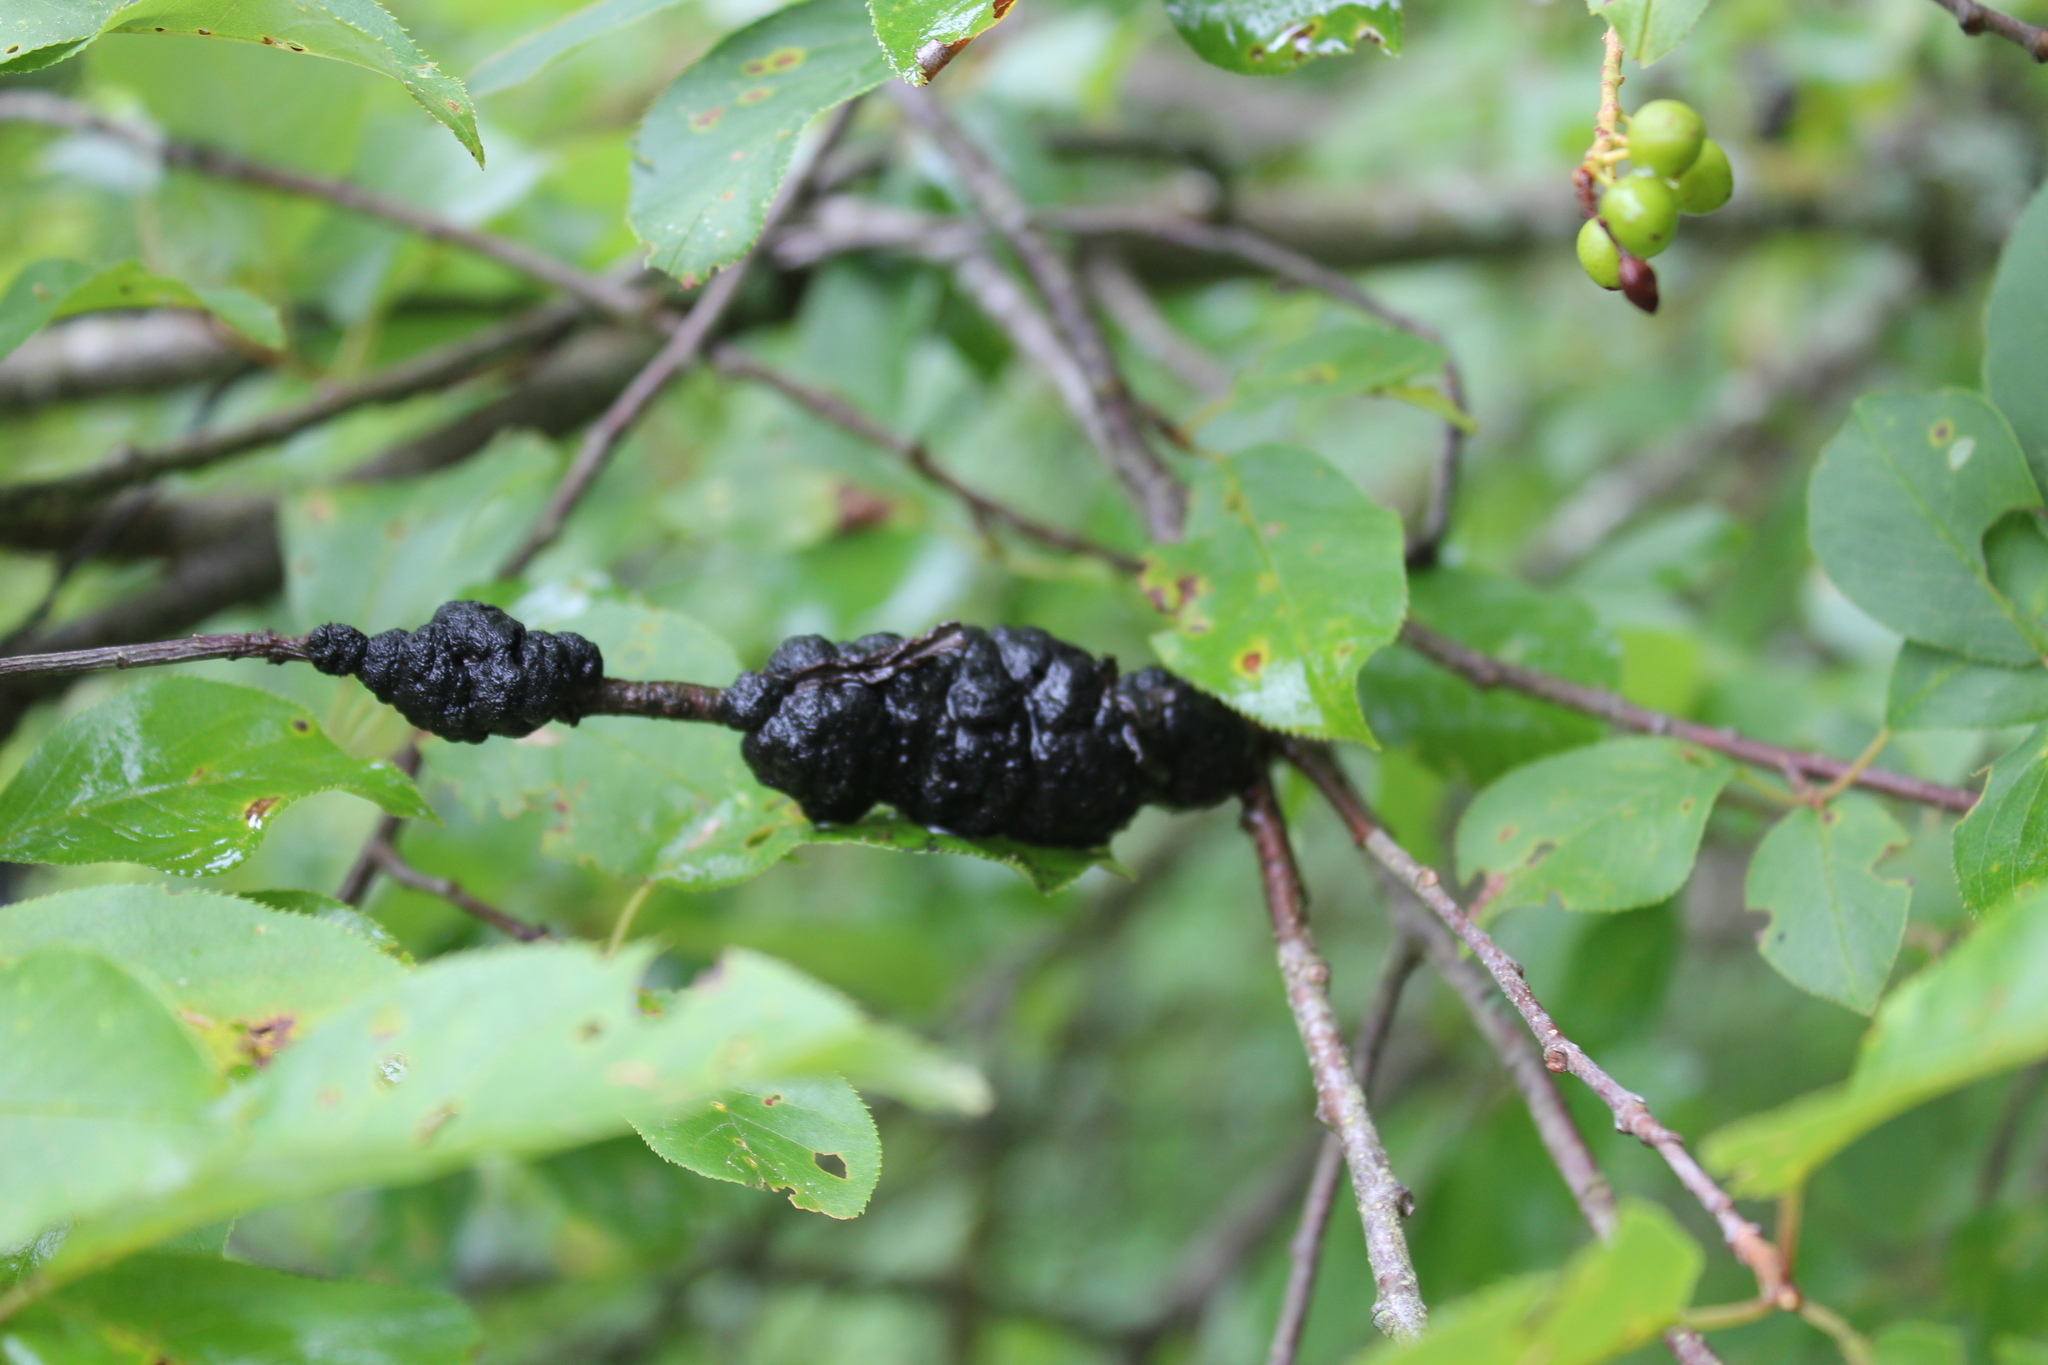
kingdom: Fungi
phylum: Ascomycota
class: Dothideomycetes
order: Venturiales
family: Venturiaceae
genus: Apiosporina
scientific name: Apiosporina morbosa
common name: Black knot
